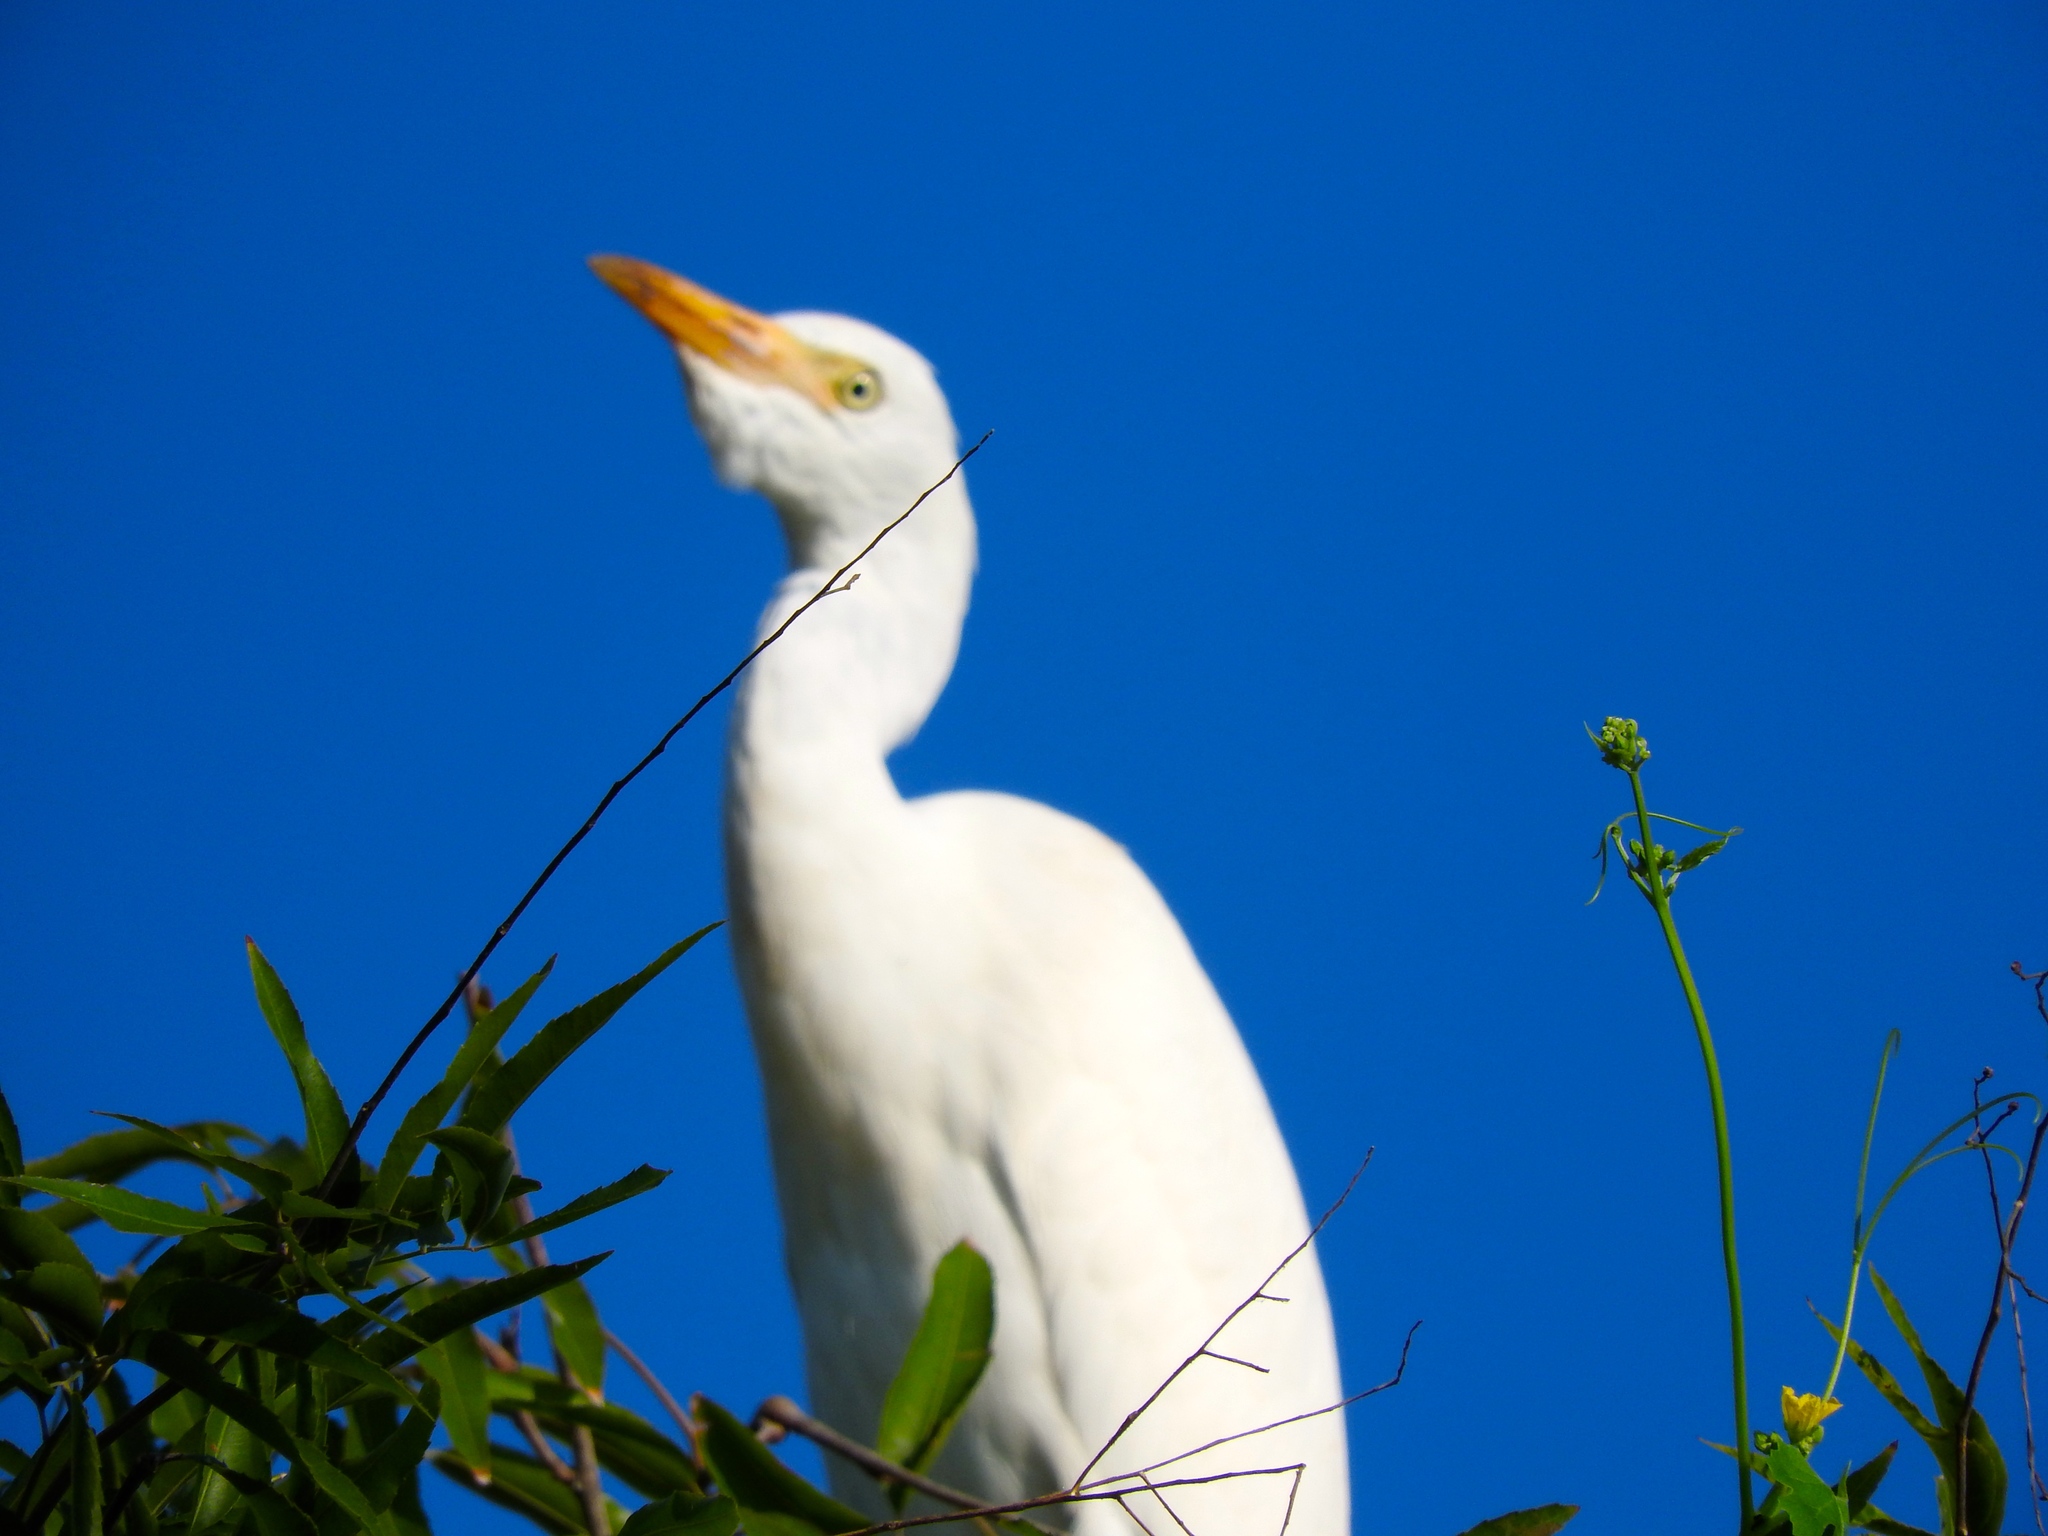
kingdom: Animalia
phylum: Chordata
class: Aves
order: Pelecaniformes
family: Ardeidae
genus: Bubulcus
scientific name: Bubulcus ibis
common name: Cattle egret
